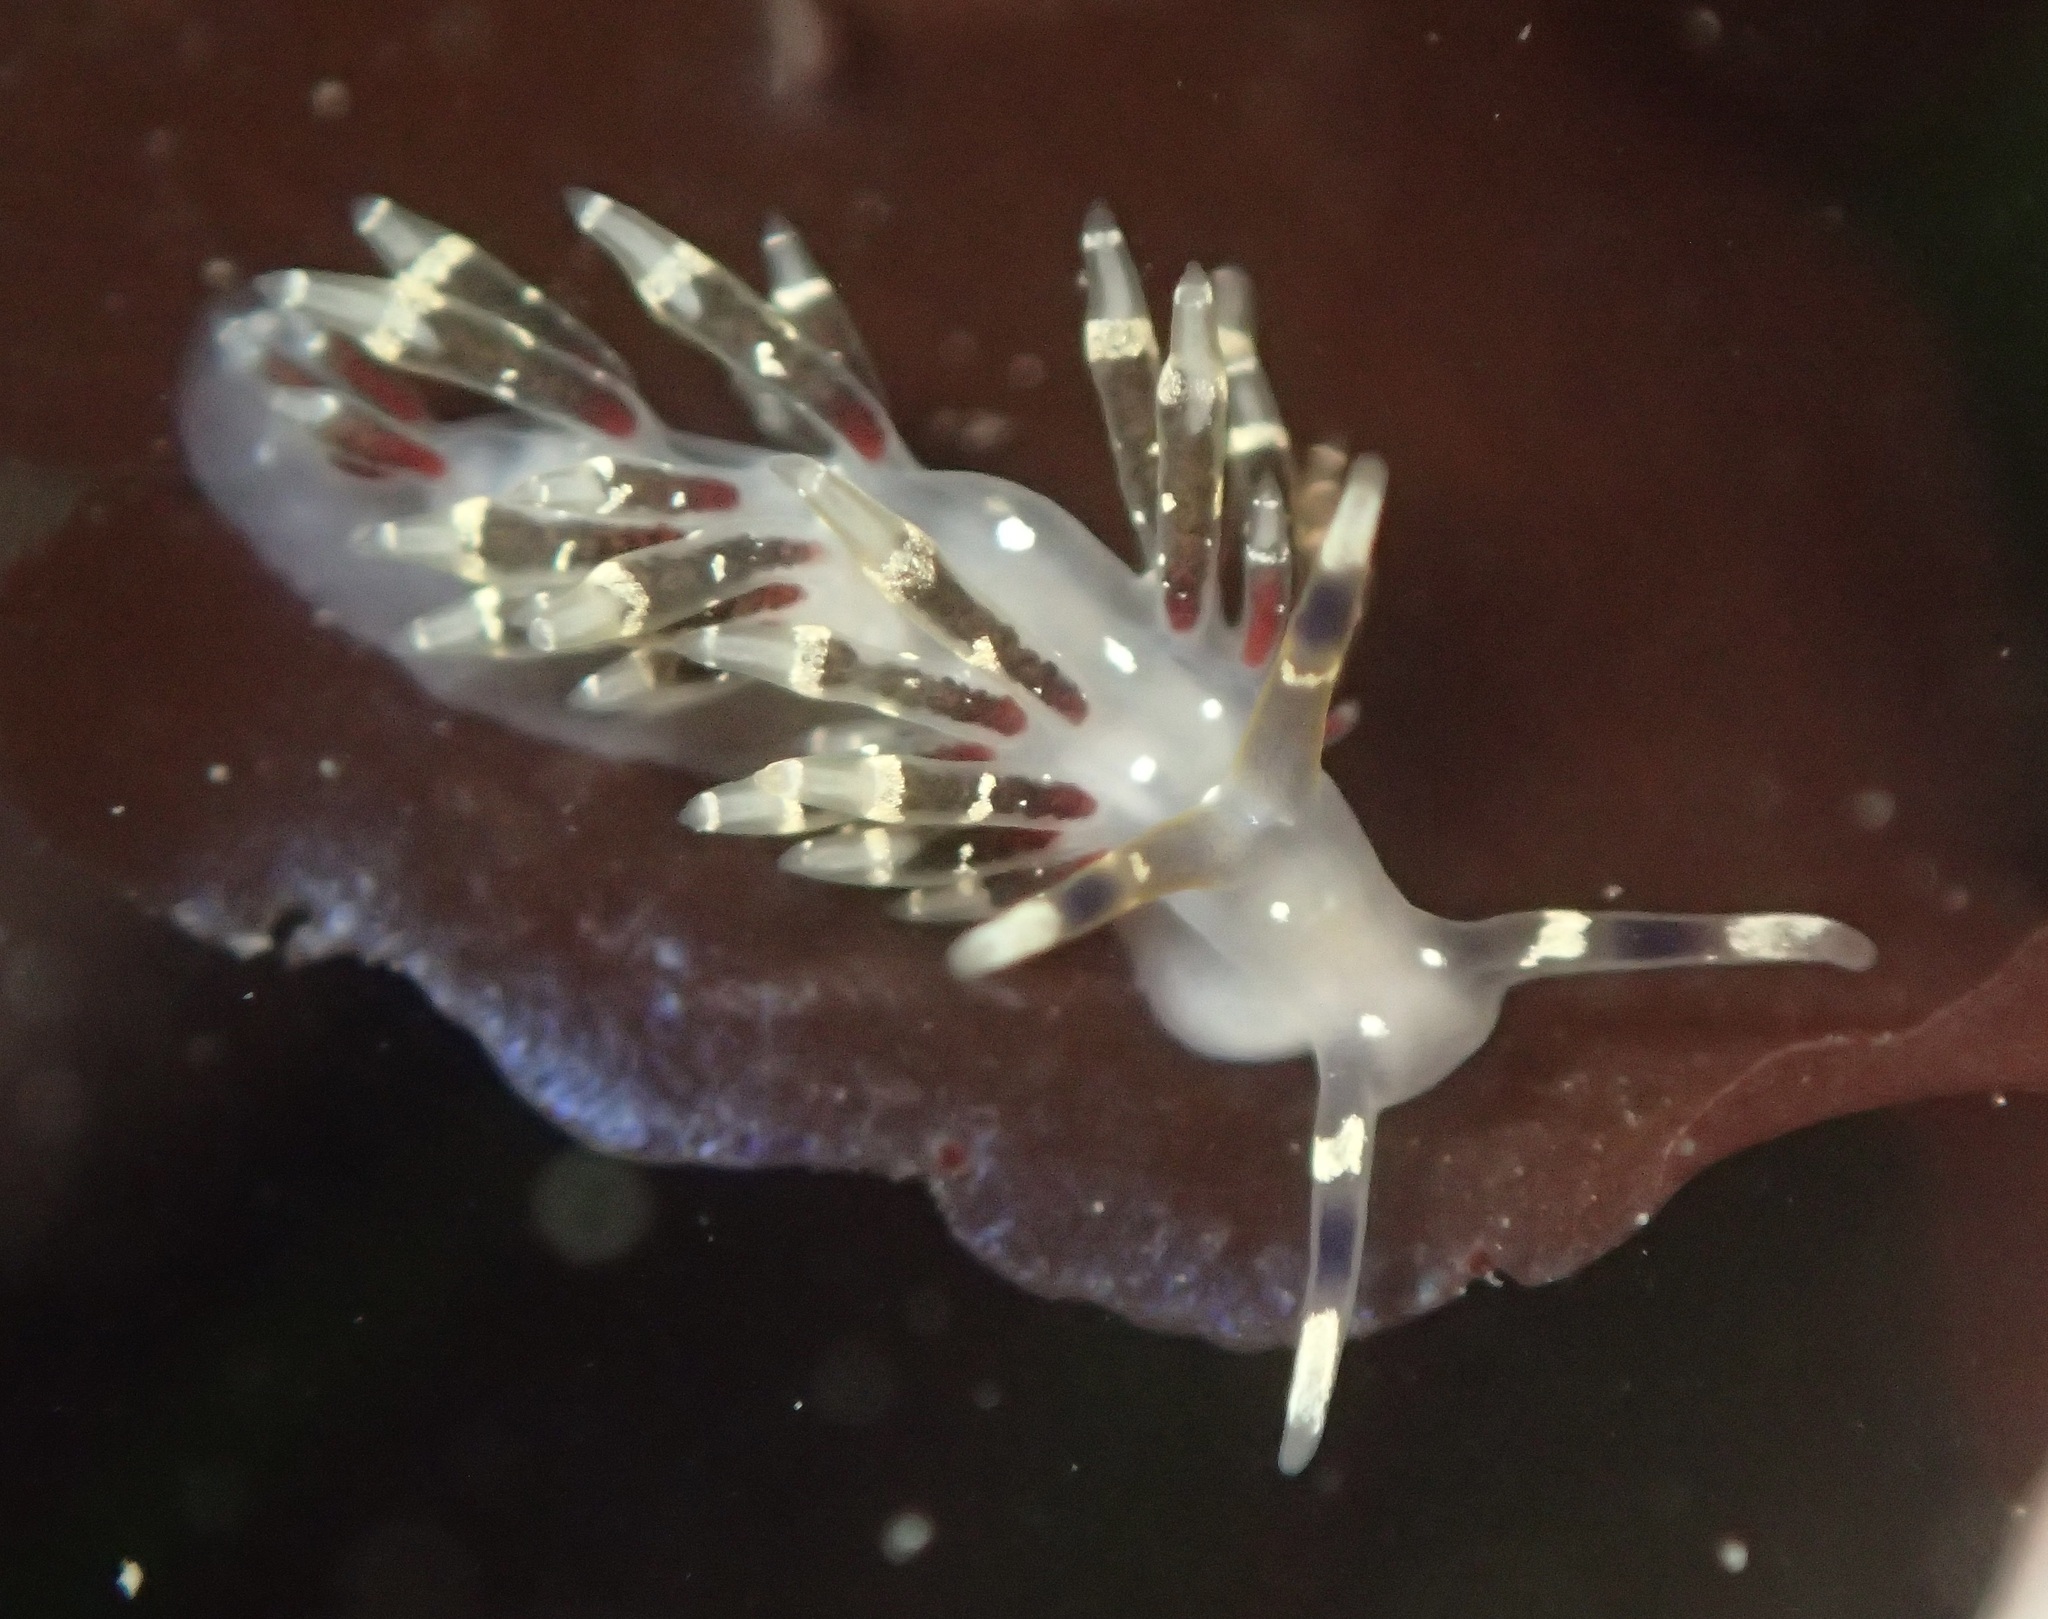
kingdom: Animalia
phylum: Mollusca
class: Gastropoda
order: Nudibranchia
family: Abronicidae
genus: Abronica
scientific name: Abronica abronia
